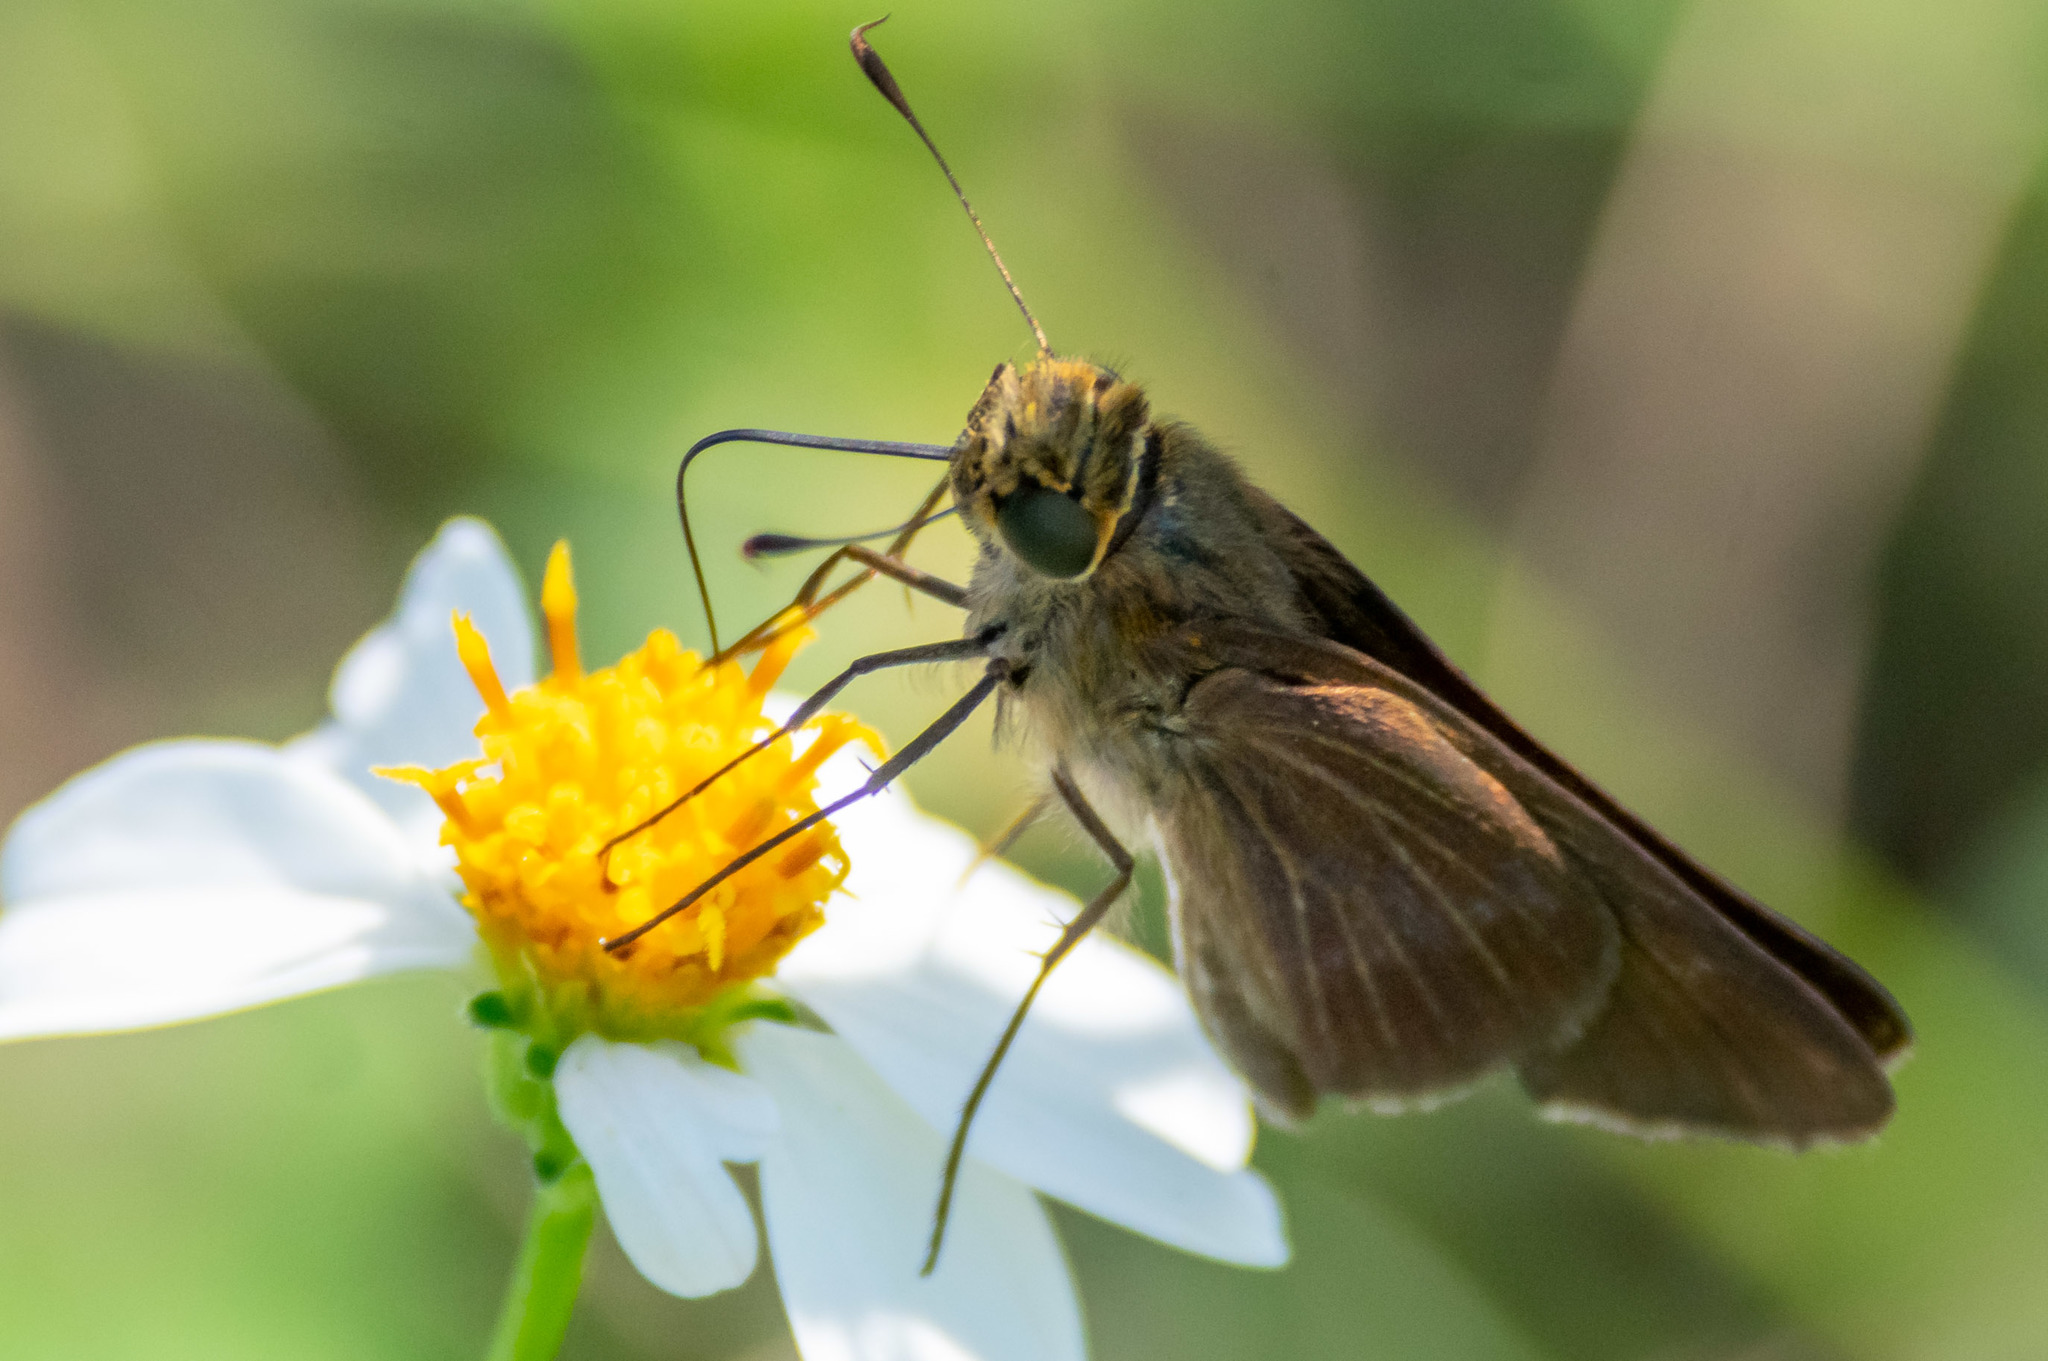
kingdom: Animalia
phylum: Arthropoda
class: Insecta
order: Lepidoptera
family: Hesperiidae
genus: Panoquina
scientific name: Panoquina ocola
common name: Ocola skipper
